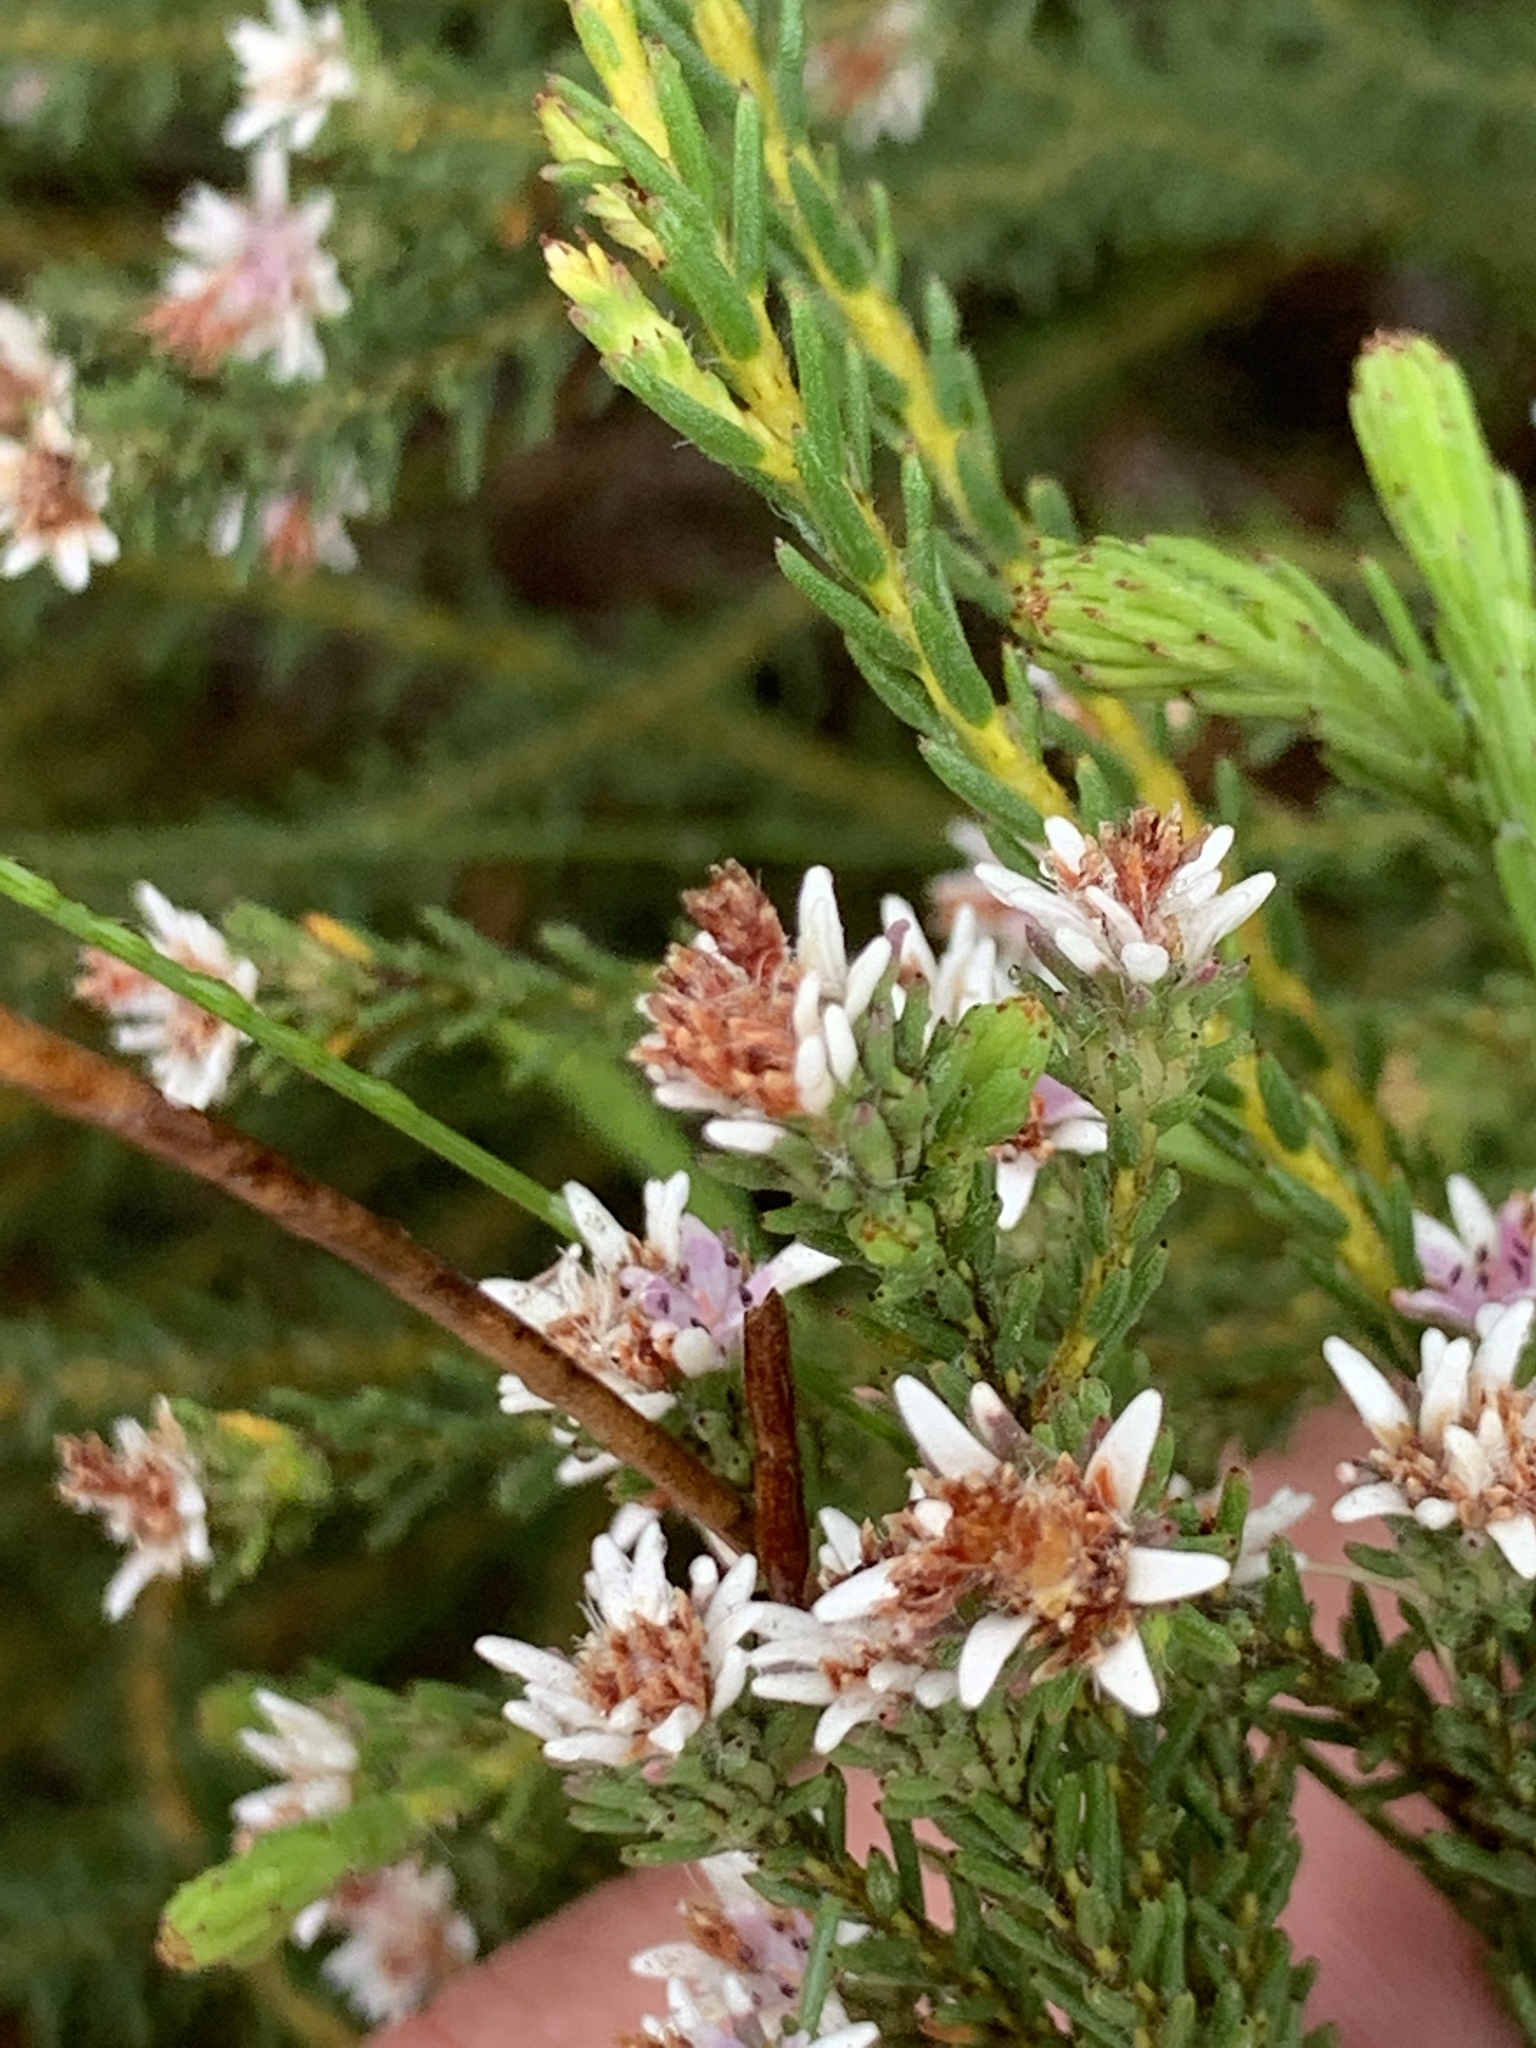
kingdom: Plantae
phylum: Tracheophyta
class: Magnoliopsida
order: Bruniales
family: Bruniaceae
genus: Staavia
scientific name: Staavia radiata
